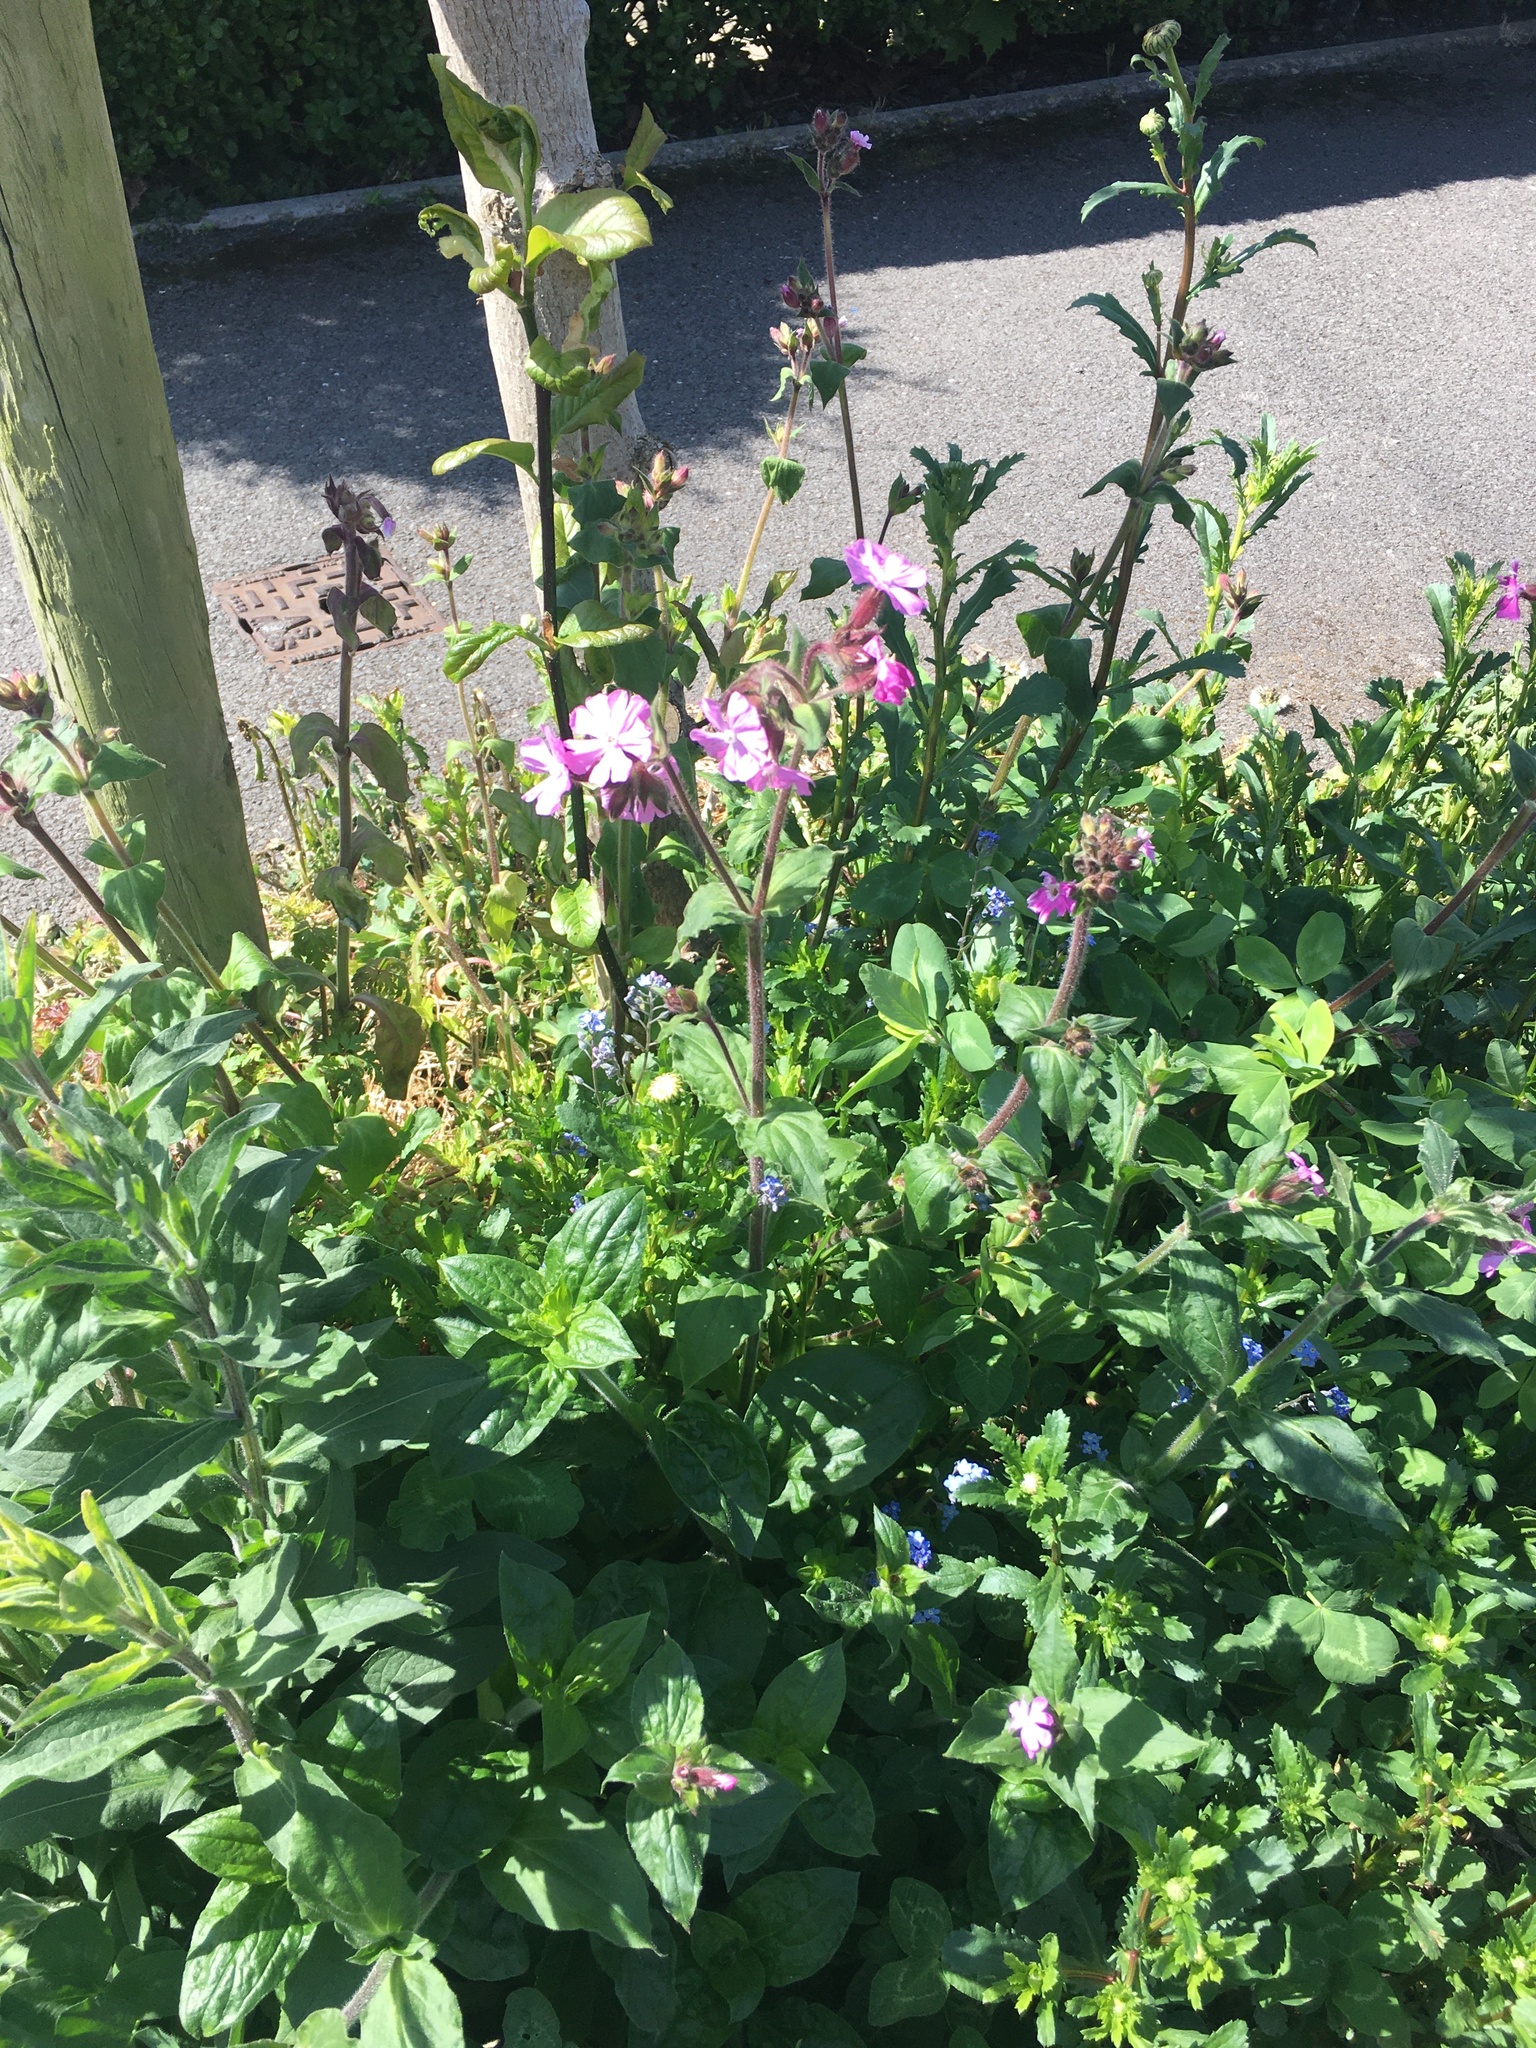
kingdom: Plantae
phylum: Tracheophyta
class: Magnoliopsida
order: Caryophyllales
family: Caryophyllaceae
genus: Silene
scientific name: Silene dioica
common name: Red campion
